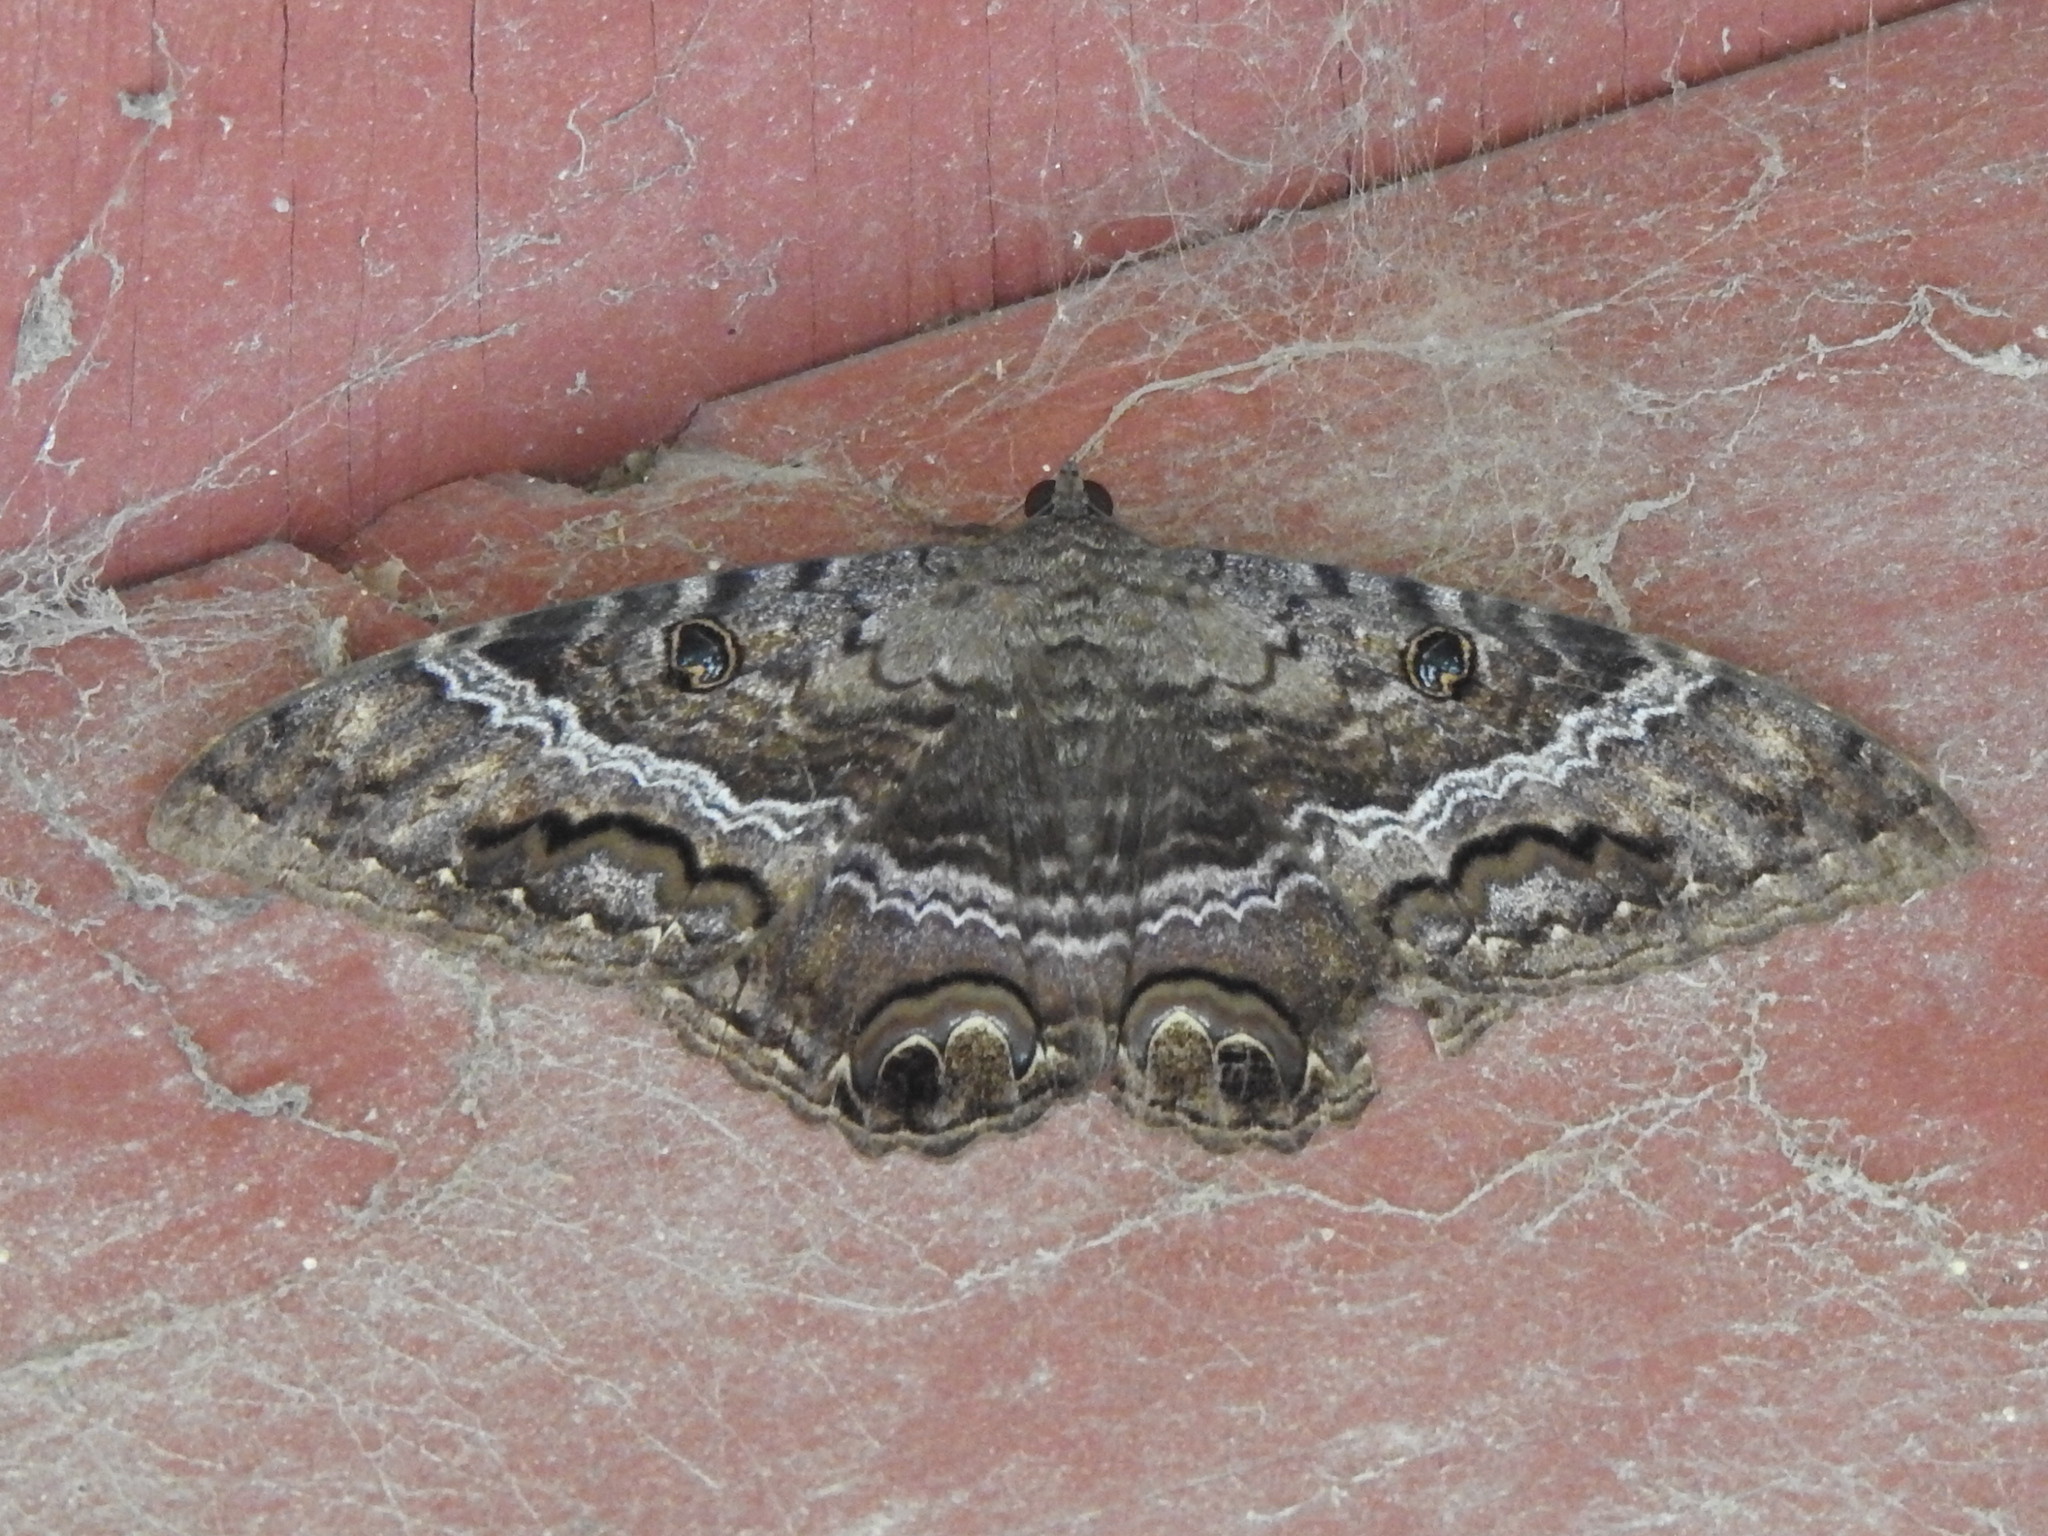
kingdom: Animalia
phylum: Arthropoda
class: Insecta
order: Lepidoptera
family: Erebidae
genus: Ascalapha
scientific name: Ascalapha odorata
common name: Black witch
